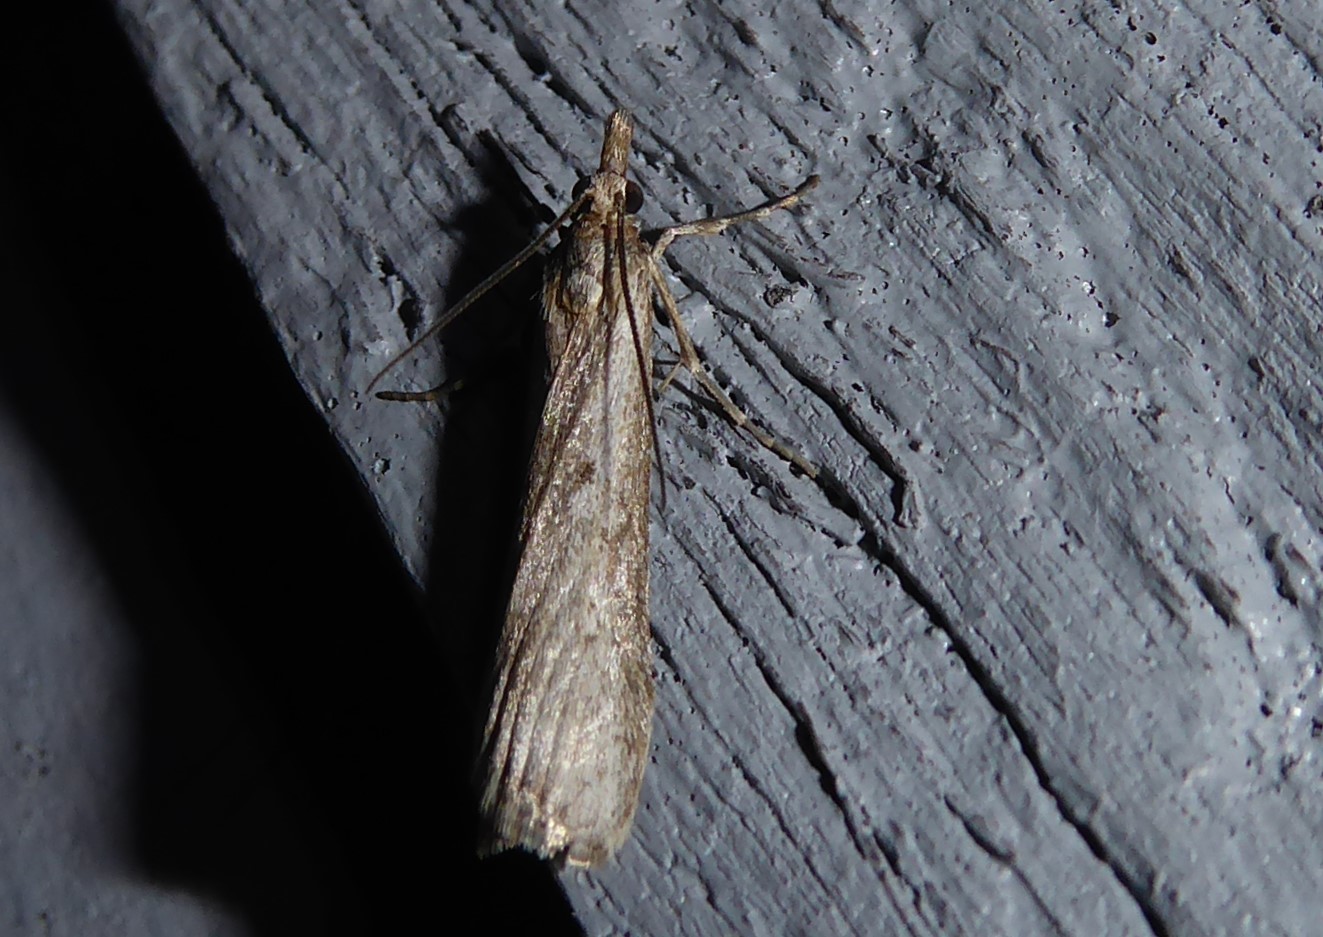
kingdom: Animalia
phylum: Arthropoda
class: Insecta
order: Lepidoptera
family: Crambidae
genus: Eudonia
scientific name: Eudonia leptalea
